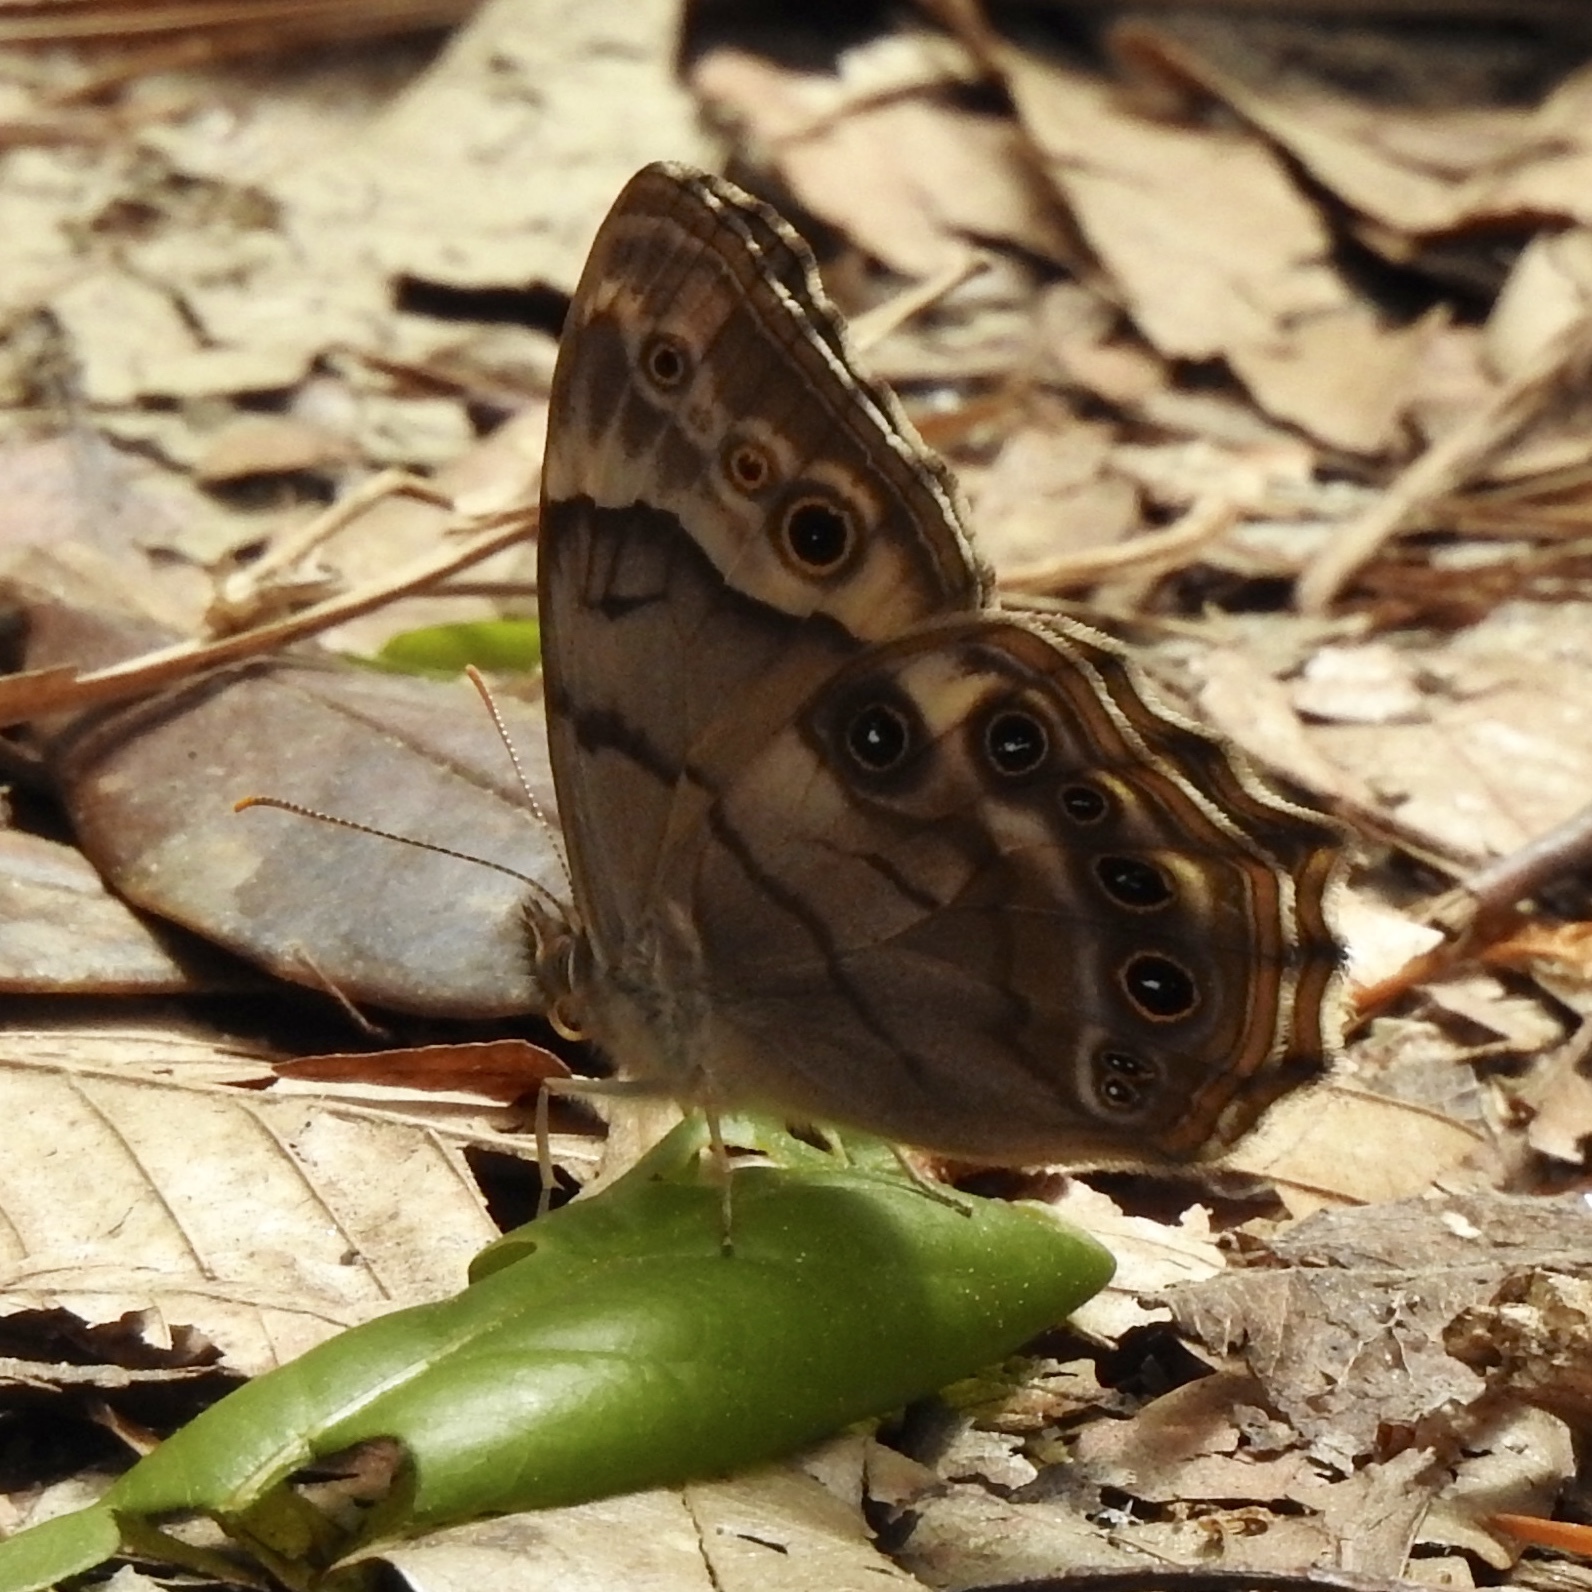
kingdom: Animalia
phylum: Arthropoda
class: Insecta
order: Lepidoptera
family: Nymphalidae
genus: Enodia
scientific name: Enodia portlandia
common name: Southern pearly-eye
